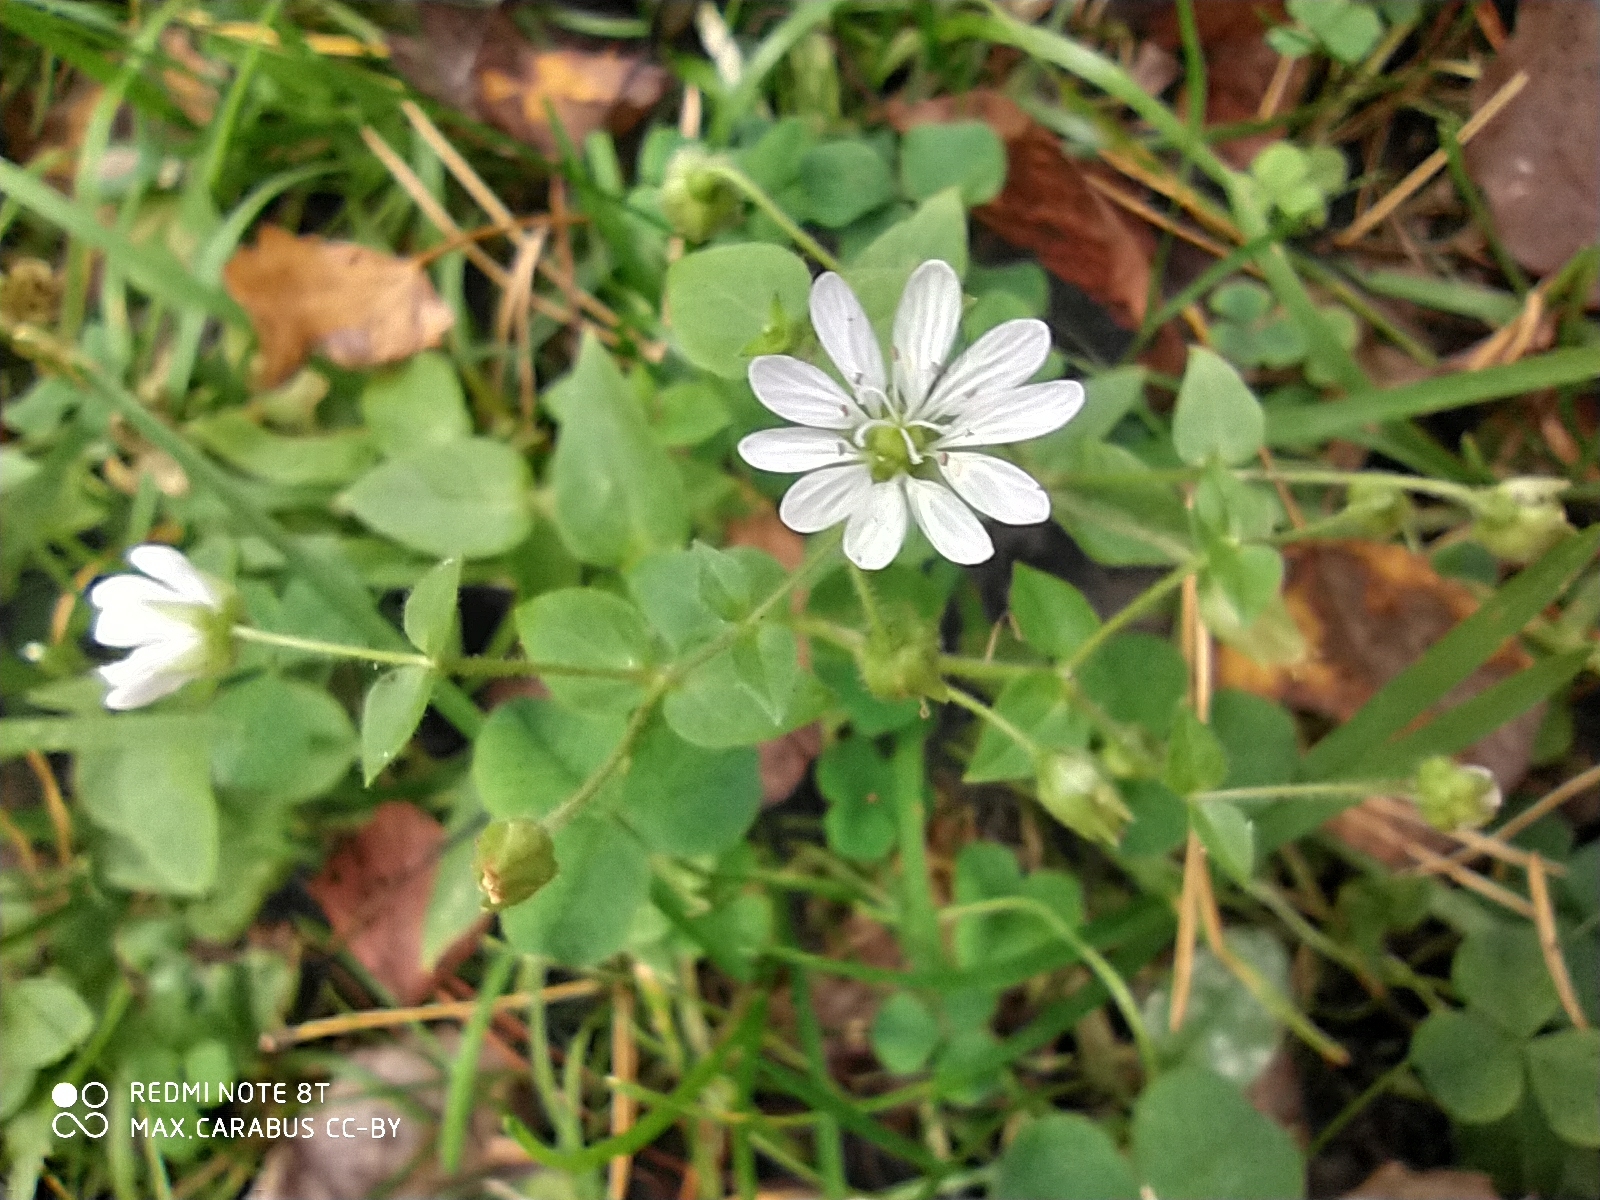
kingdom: Plantae
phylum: Tracheophyta
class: Magnoliopsida
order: Caryophyllales
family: Caryophyllaceae
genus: Stellaria
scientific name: Stellaria aquatica
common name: Water chickweed
